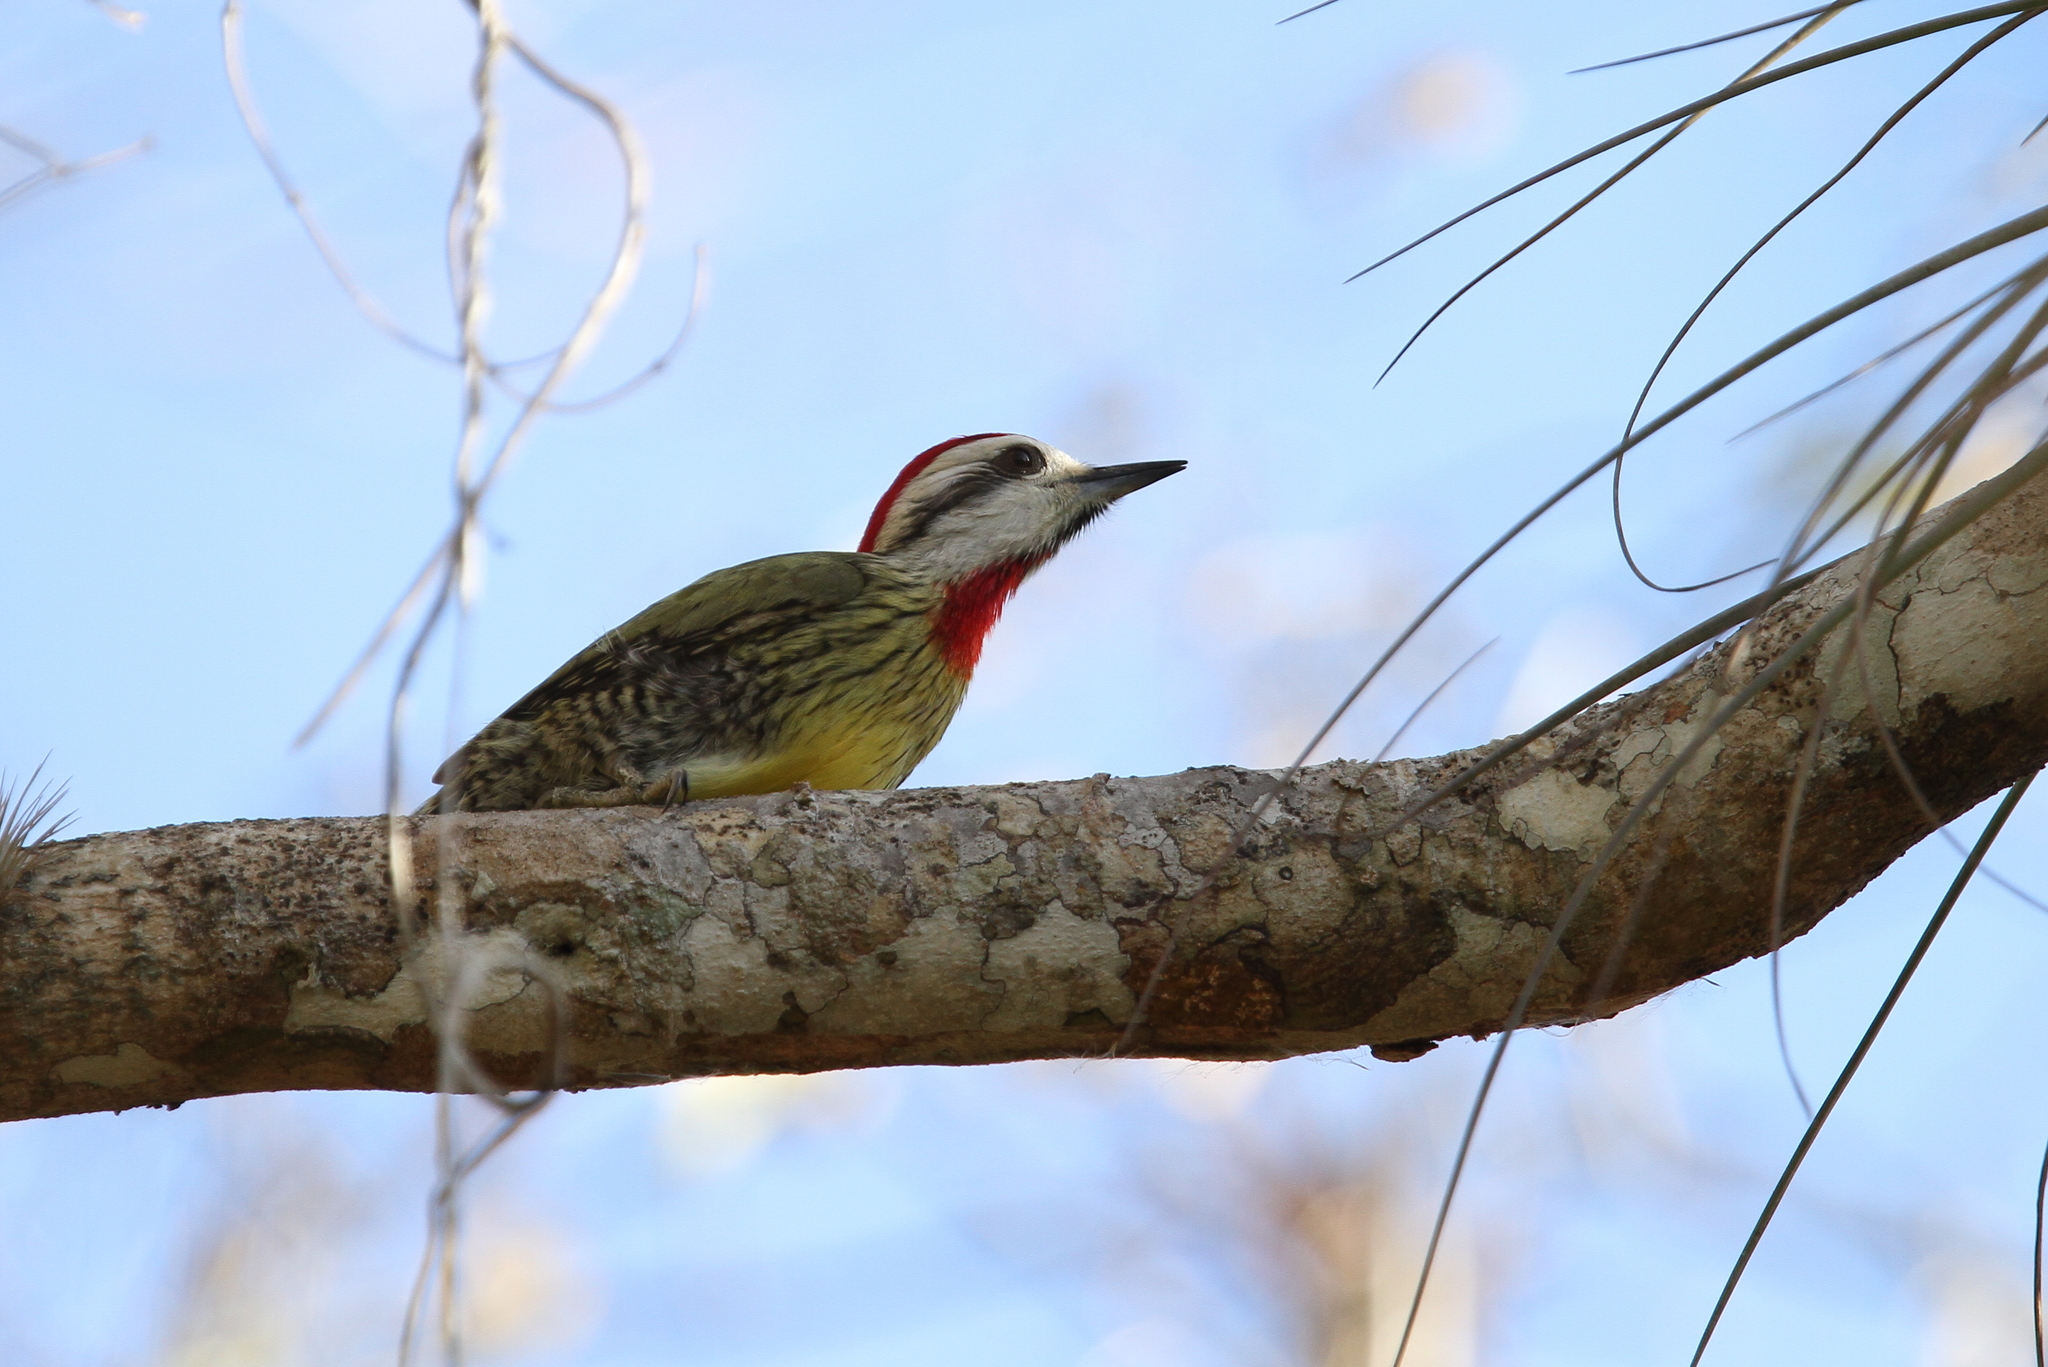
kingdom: Animalia
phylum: Chordata
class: Aves
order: Piciformes
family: Picidae
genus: Xiphidiopicus
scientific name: Xiphidiopicus percussus
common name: Cuban green woodpecker
